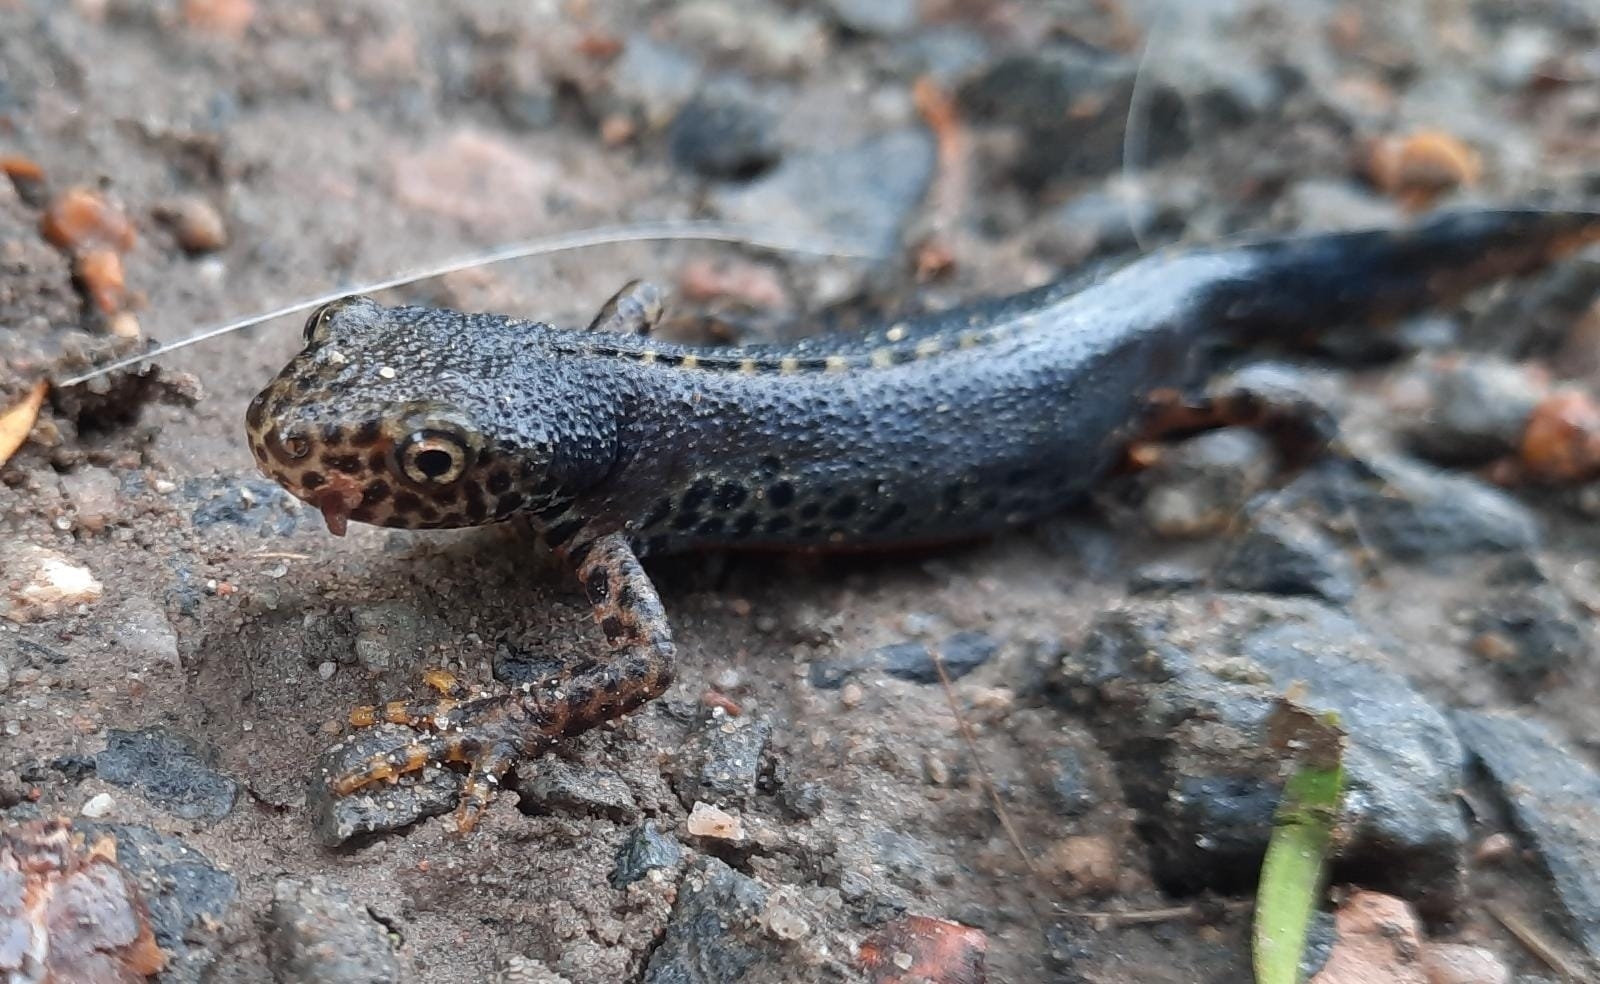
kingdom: Animalia
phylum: Chordata
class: Amphibia
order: Caudata
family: Salamandridae
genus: Ichthyosaura
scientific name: Ichthyosaura alpestris
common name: Alpine newt
